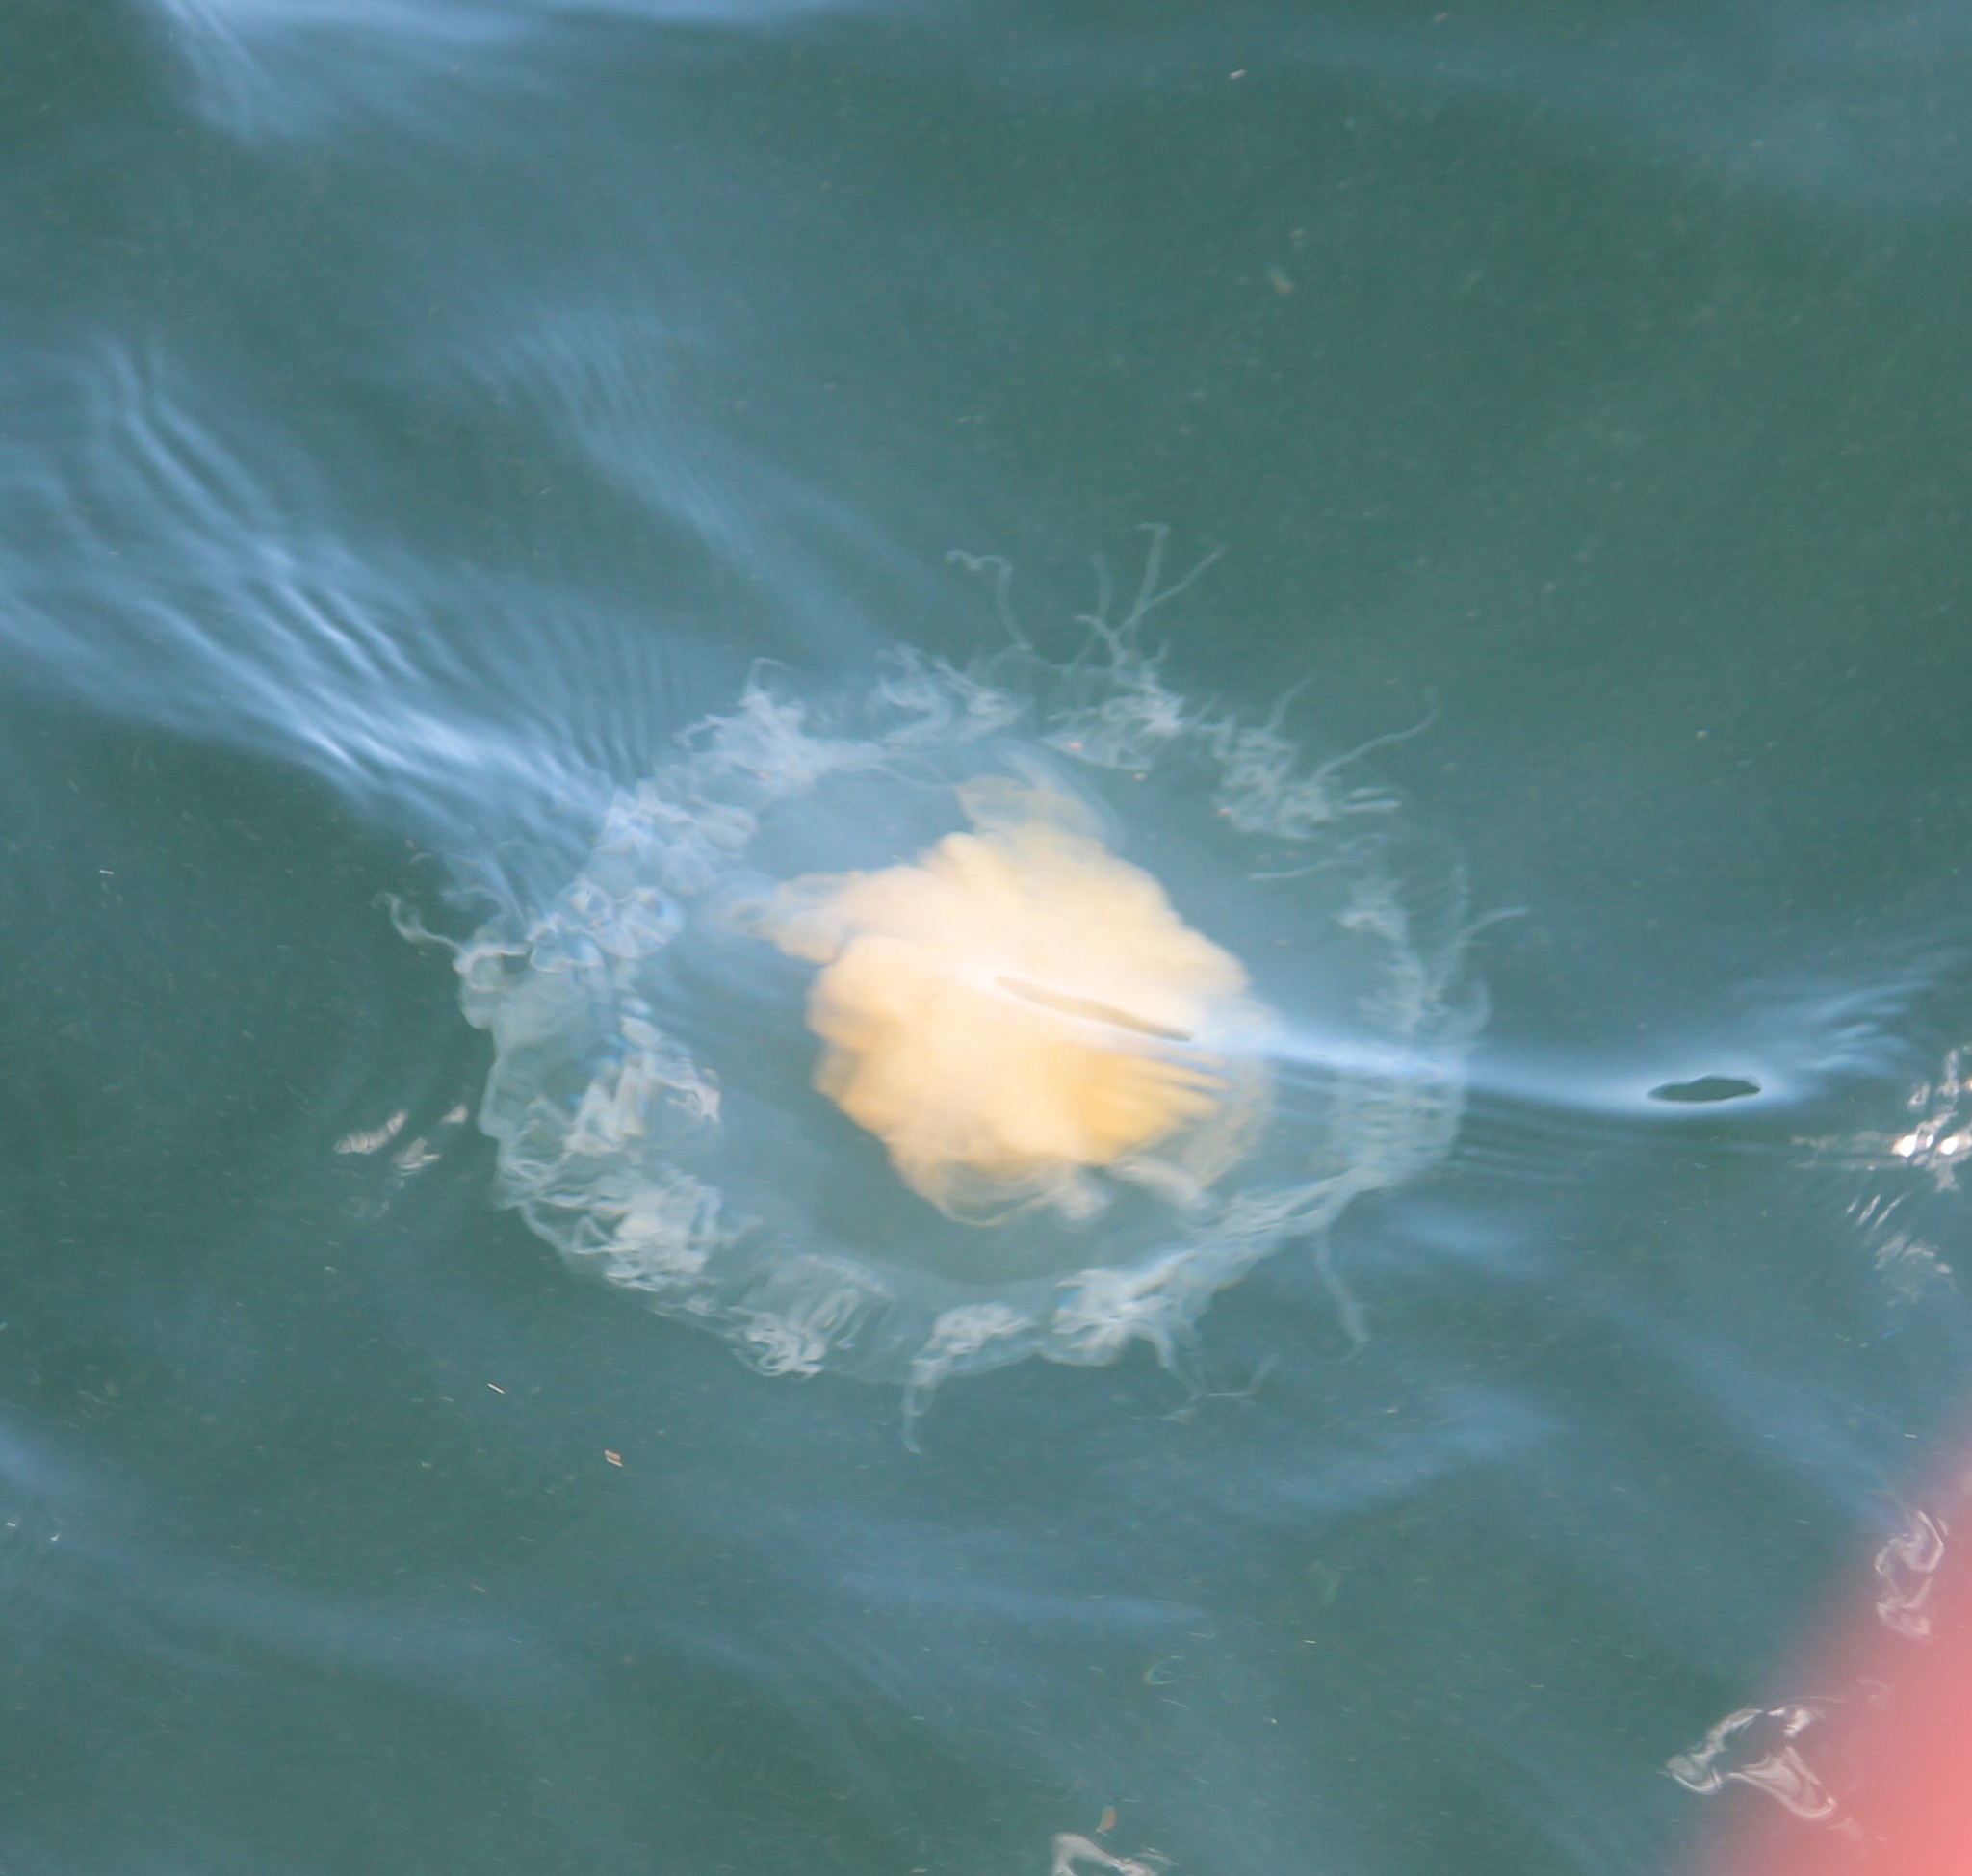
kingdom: Animalia
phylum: Cnidaria
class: Scyphozoa
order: Semaeostomeae
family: Phacellophoridae
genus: Phacellophora
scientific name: Phacellophora camtschatica
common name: Fried-egg jellyfish
